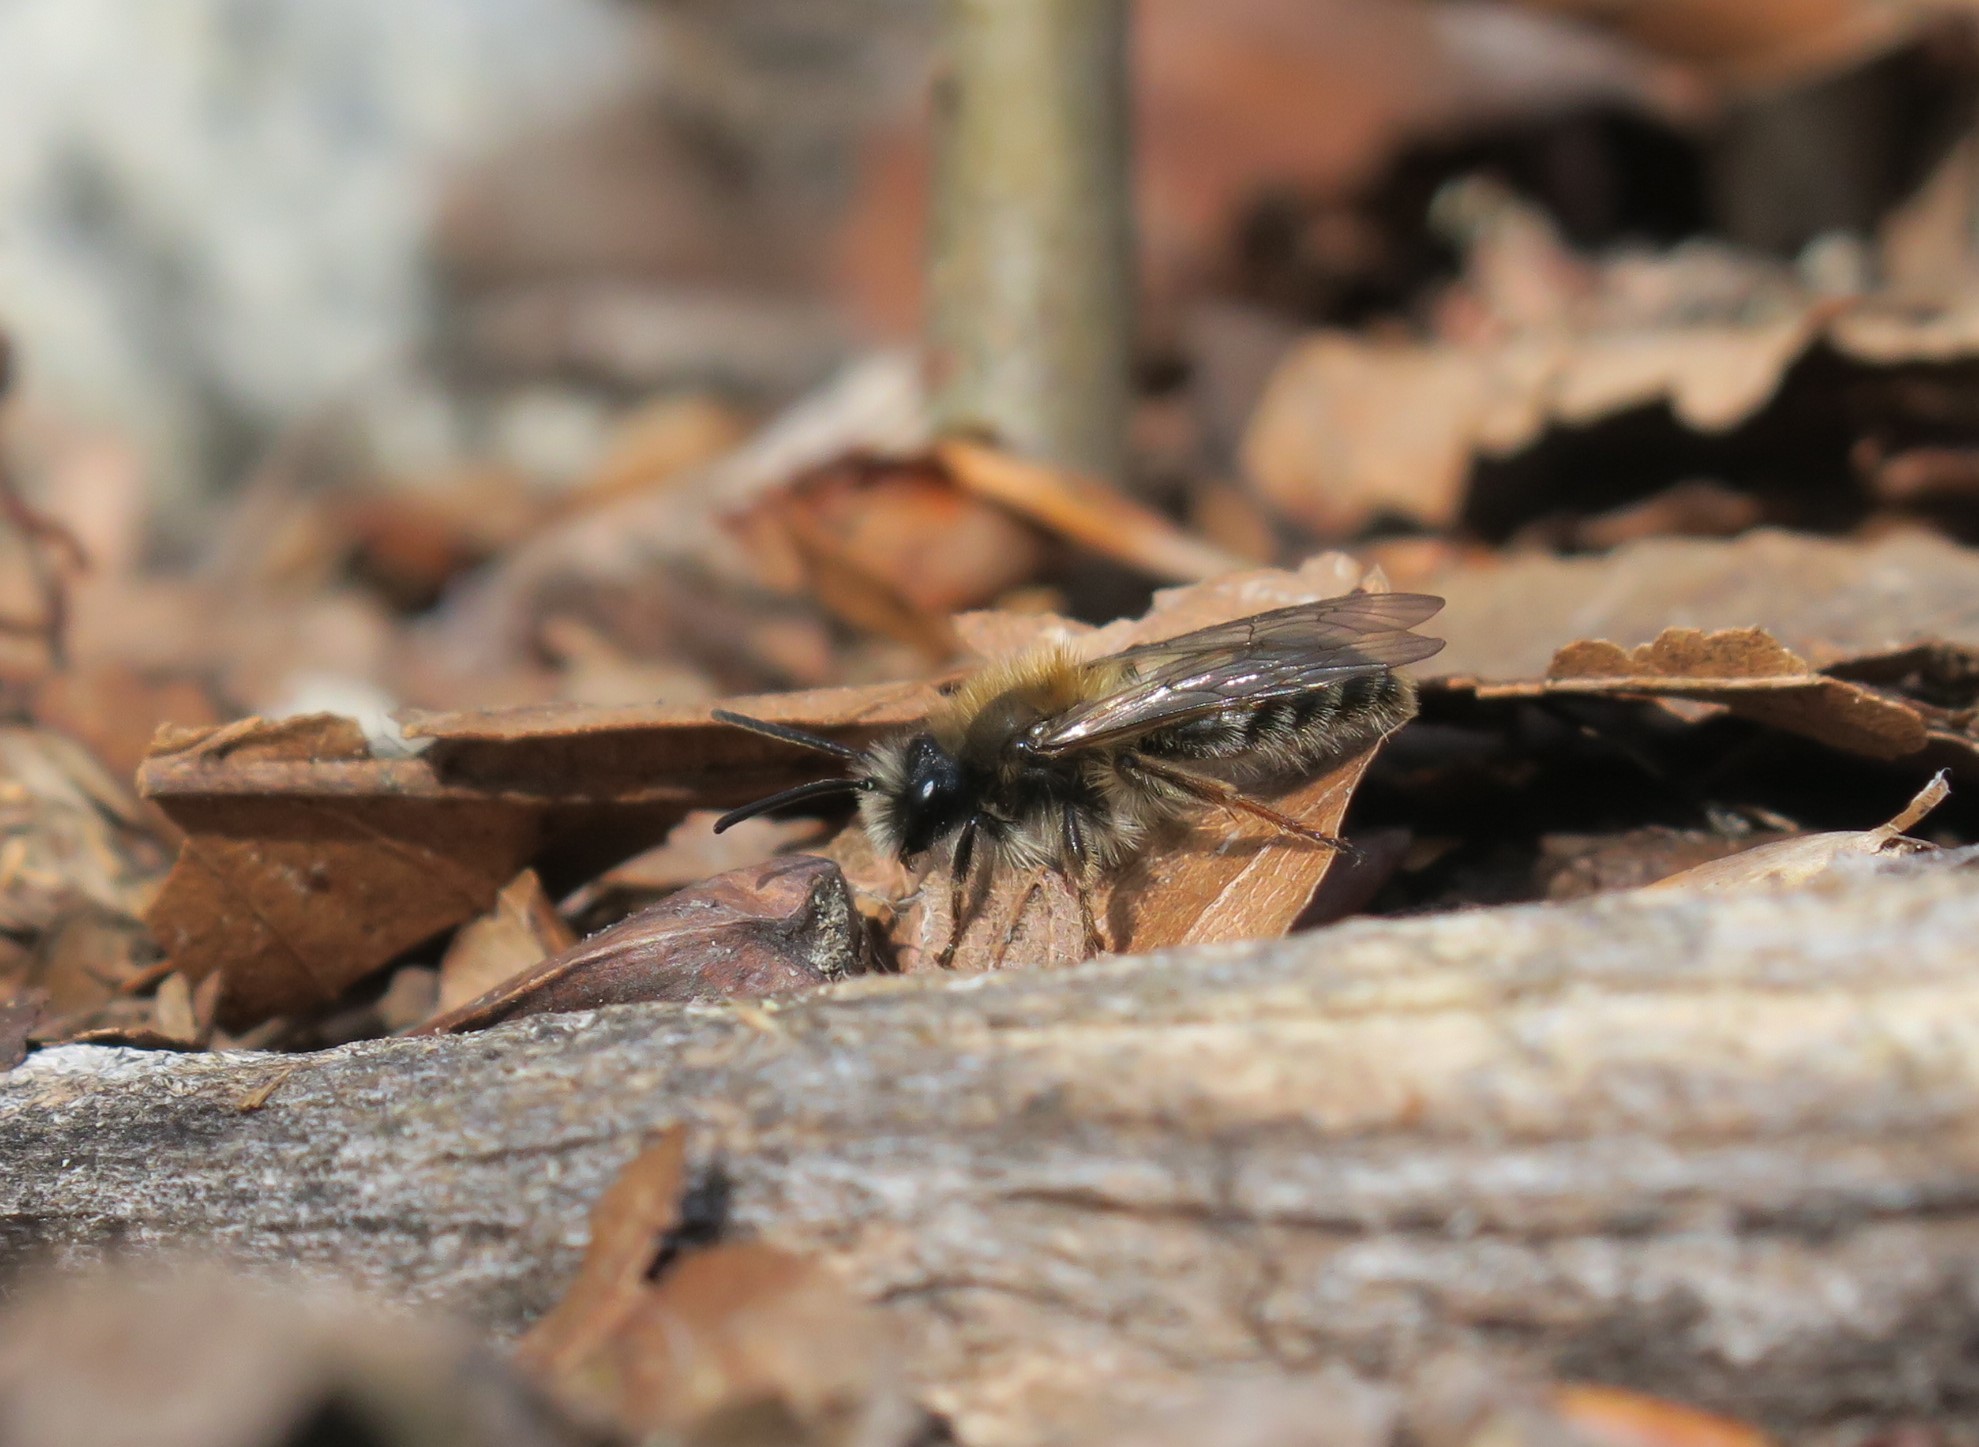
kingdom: Animalia
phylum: Arthropoda
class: Insecta
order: Hymenoptera
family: Andrenidae
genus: Andrena
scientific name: Andrena clarkella
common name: Clarke's mining bee
